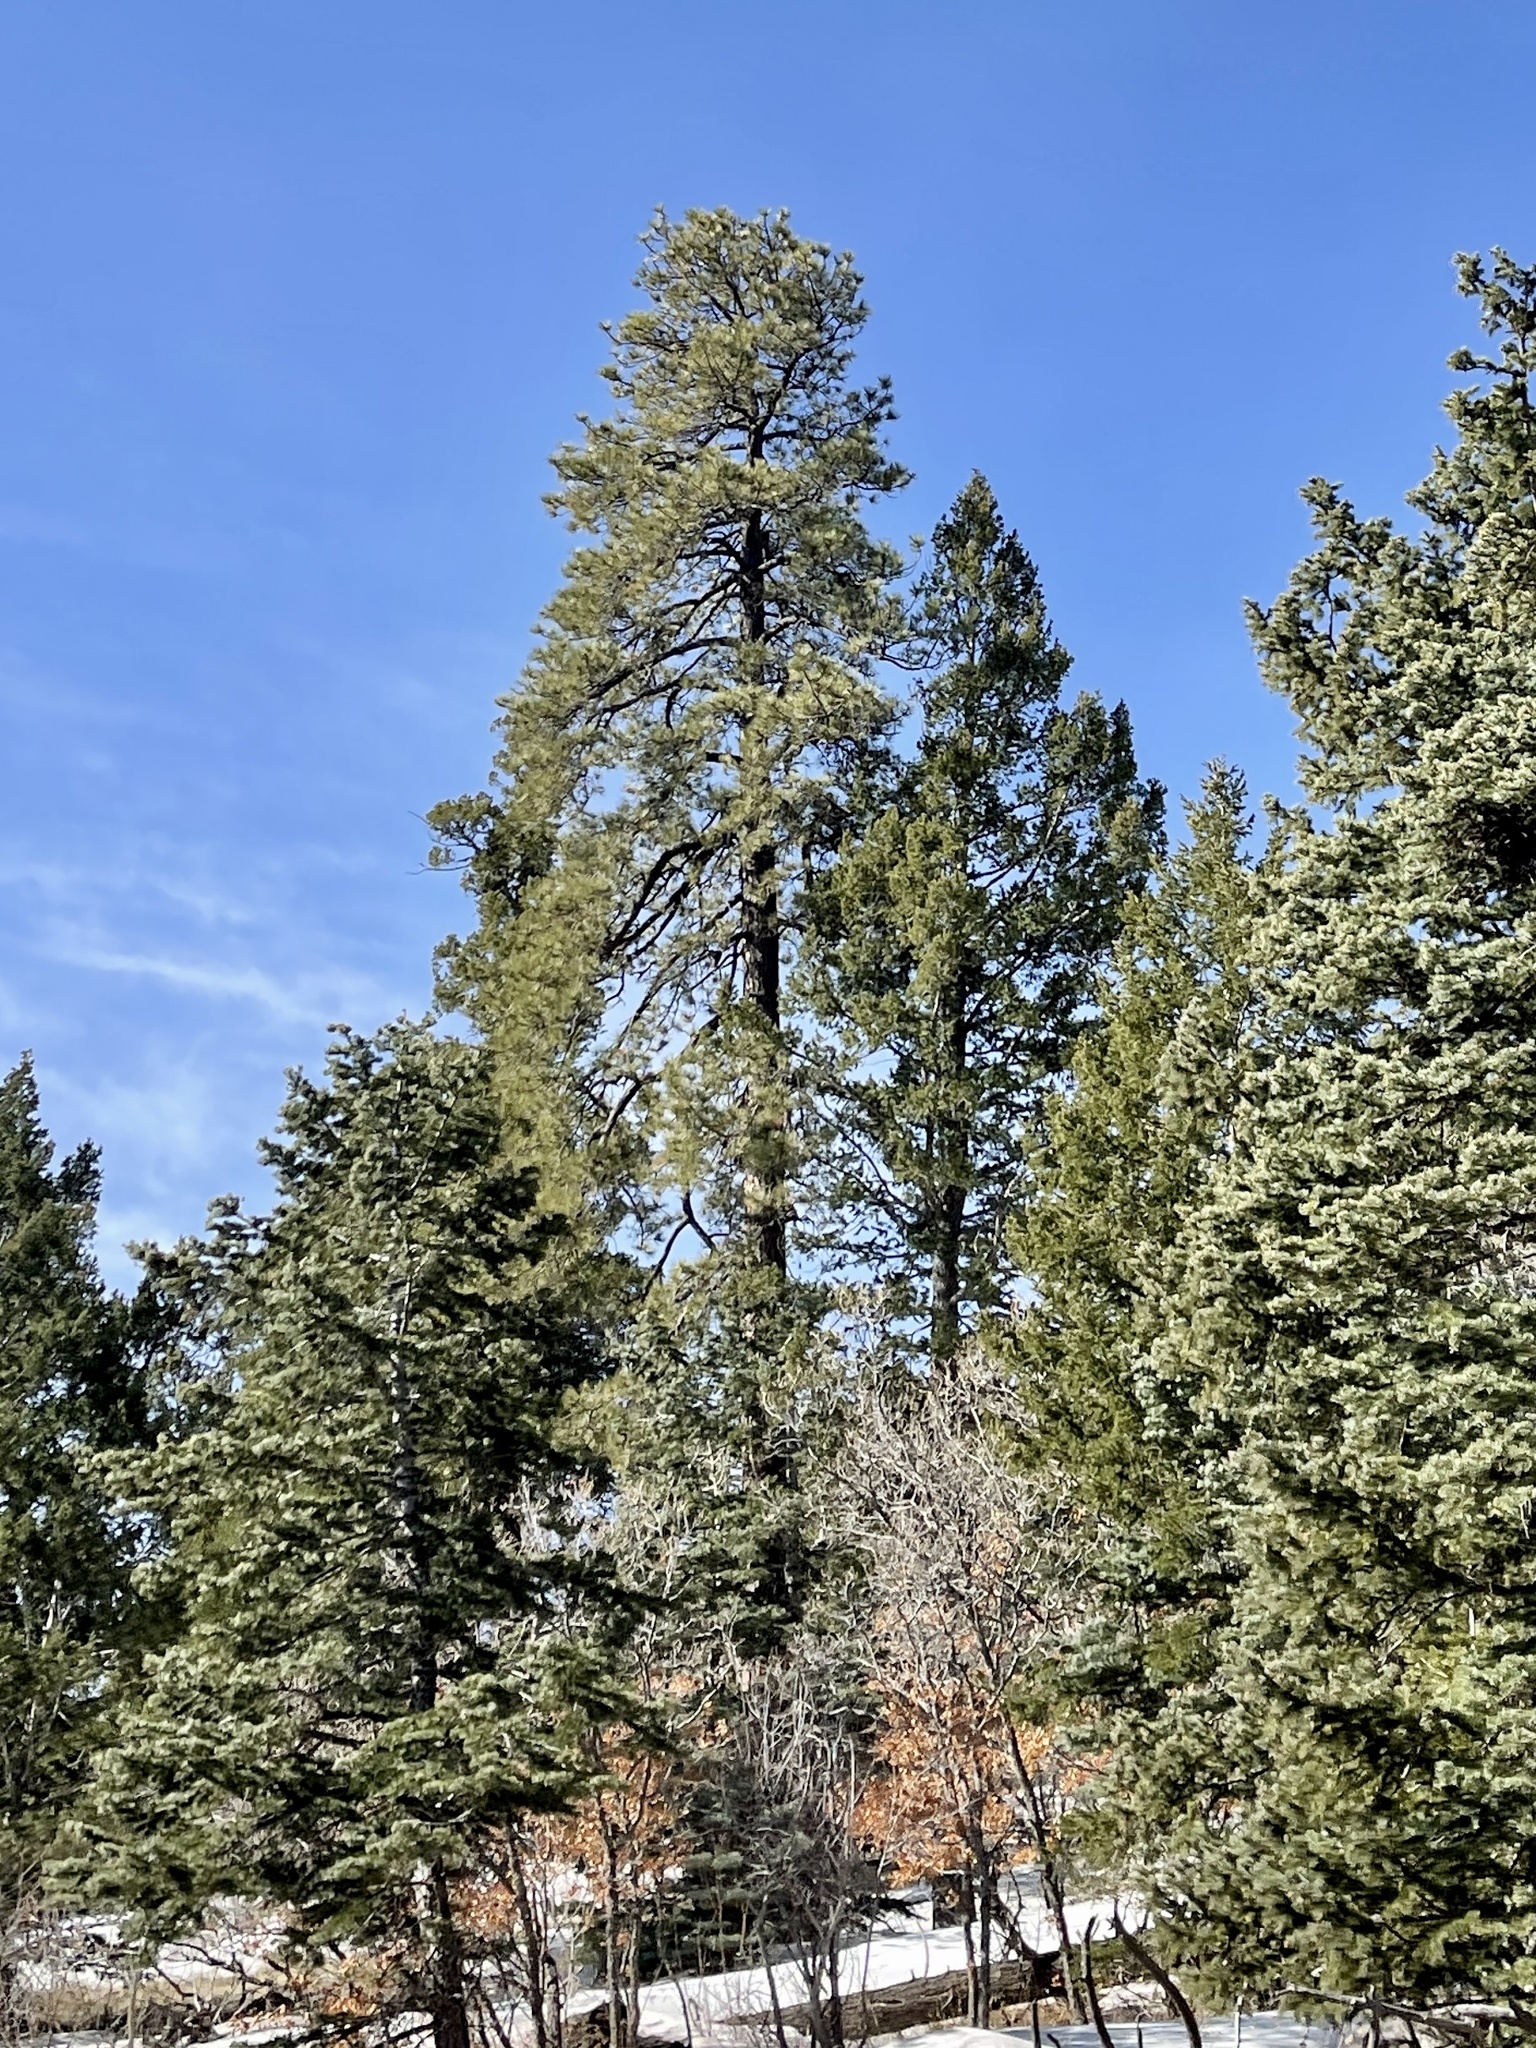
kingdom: Plantae
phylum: Tracheophyta
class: Pinopsida
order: Pinales
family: Pinaceae
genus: Pinus
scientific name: Pinus ponderosa
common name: Western yellow-pine
